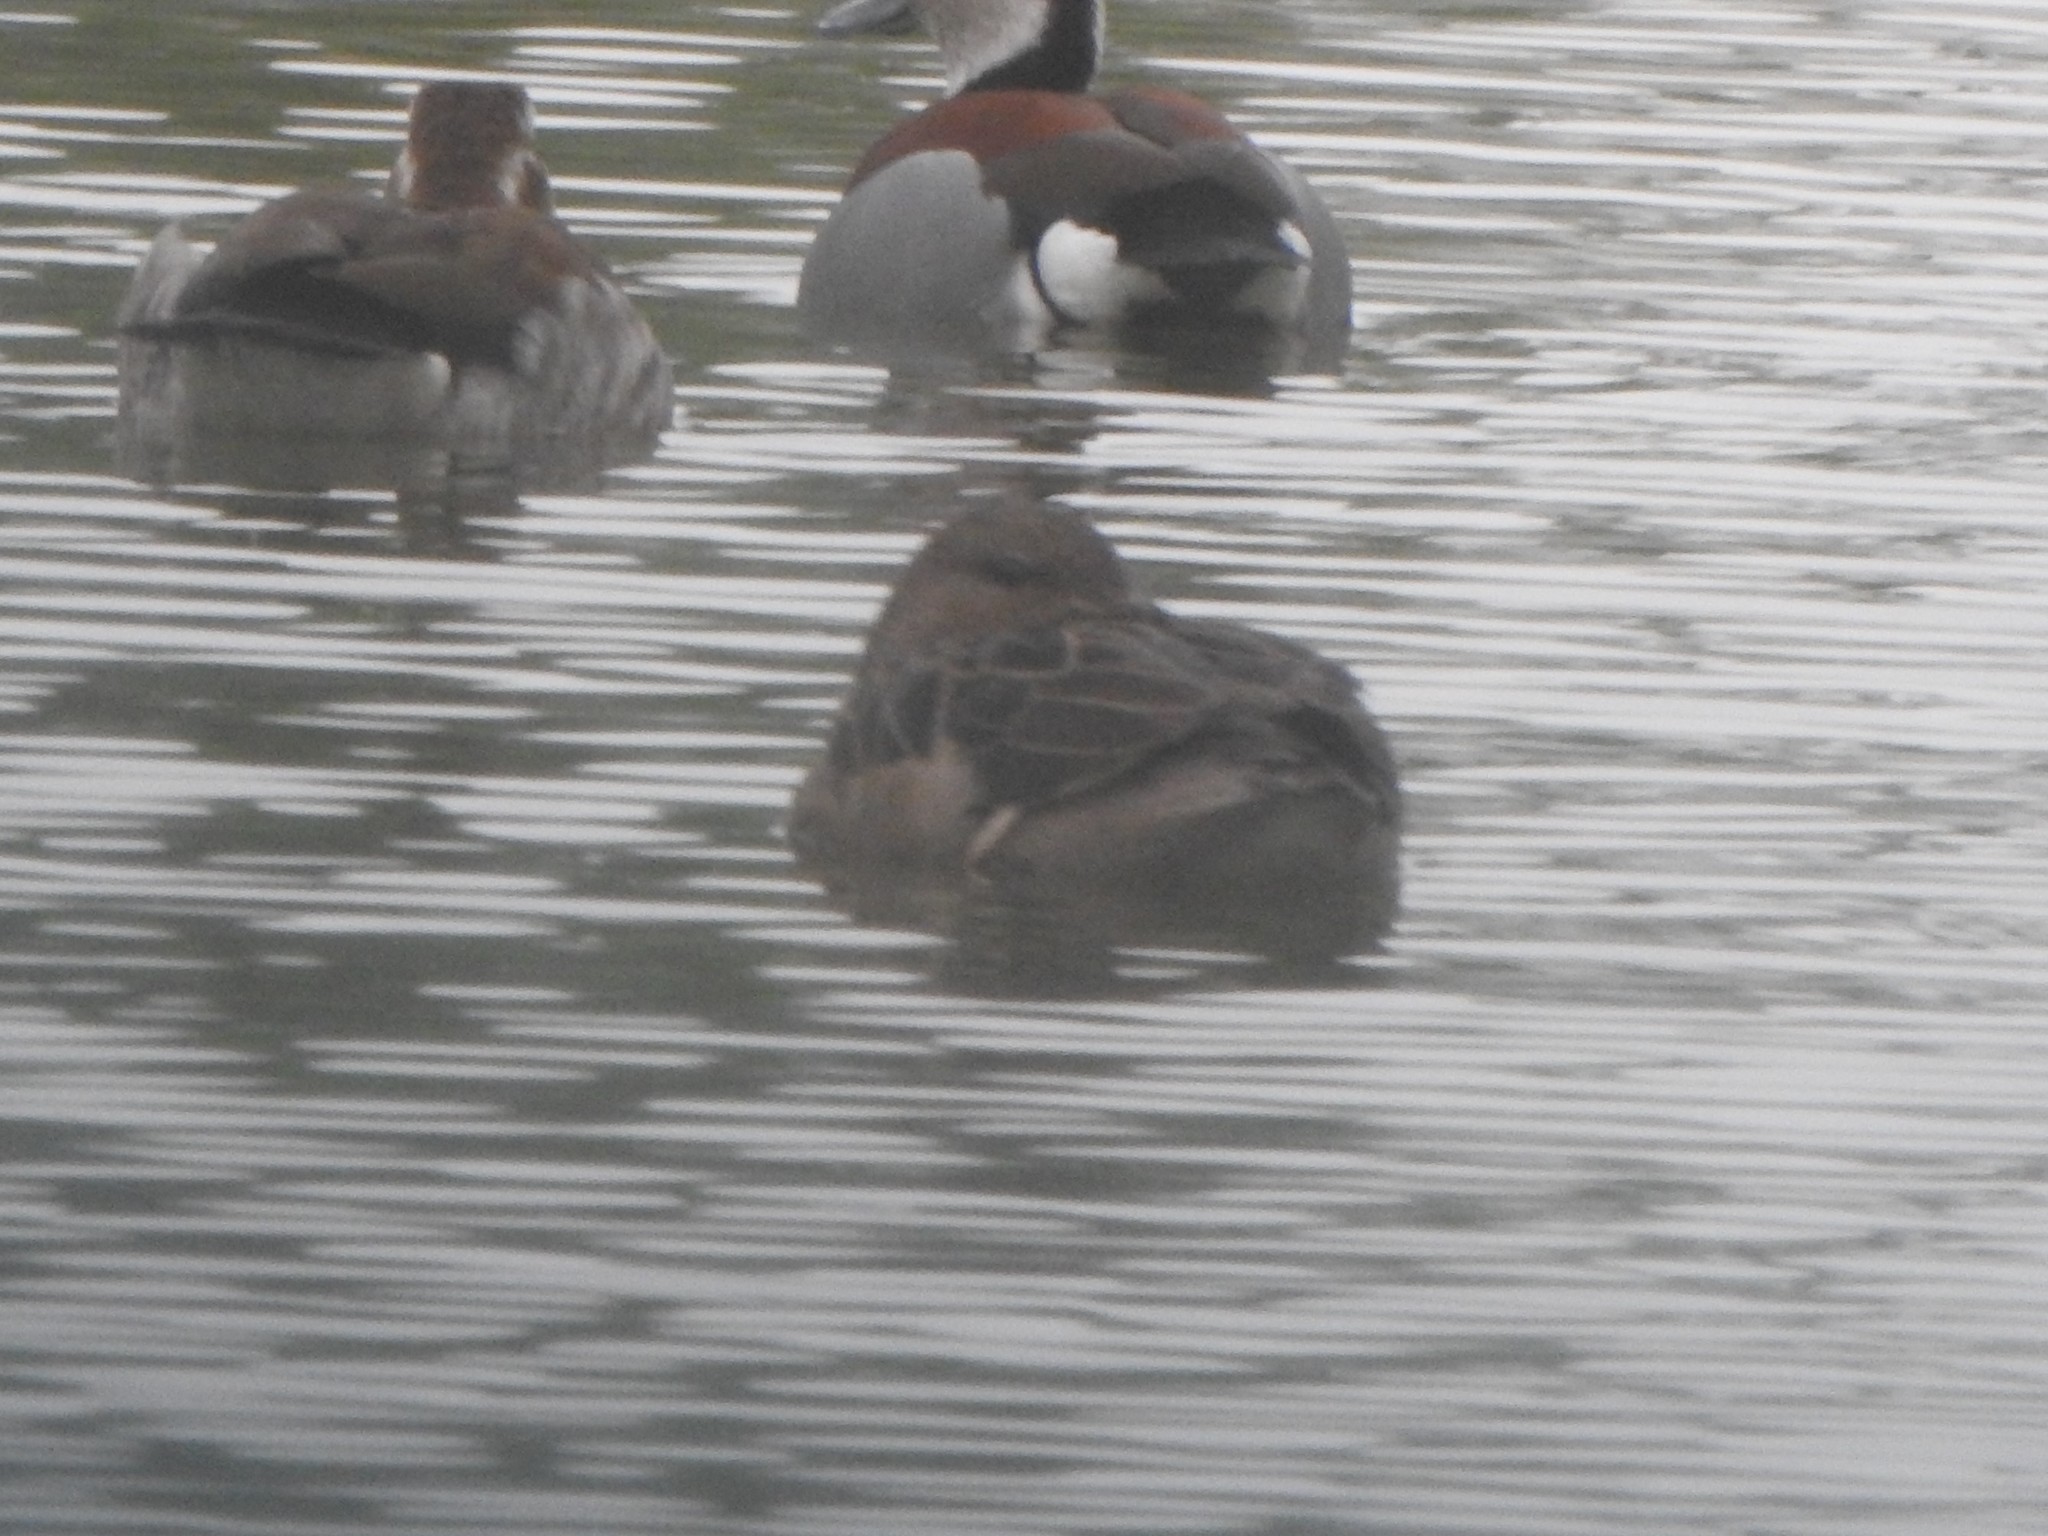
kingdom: Animalia
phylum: Chordata
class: Aves
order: Anseriformes
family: Anatidae
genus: Anas
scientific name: Anas flavirostris
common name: Yellow-billed teal
